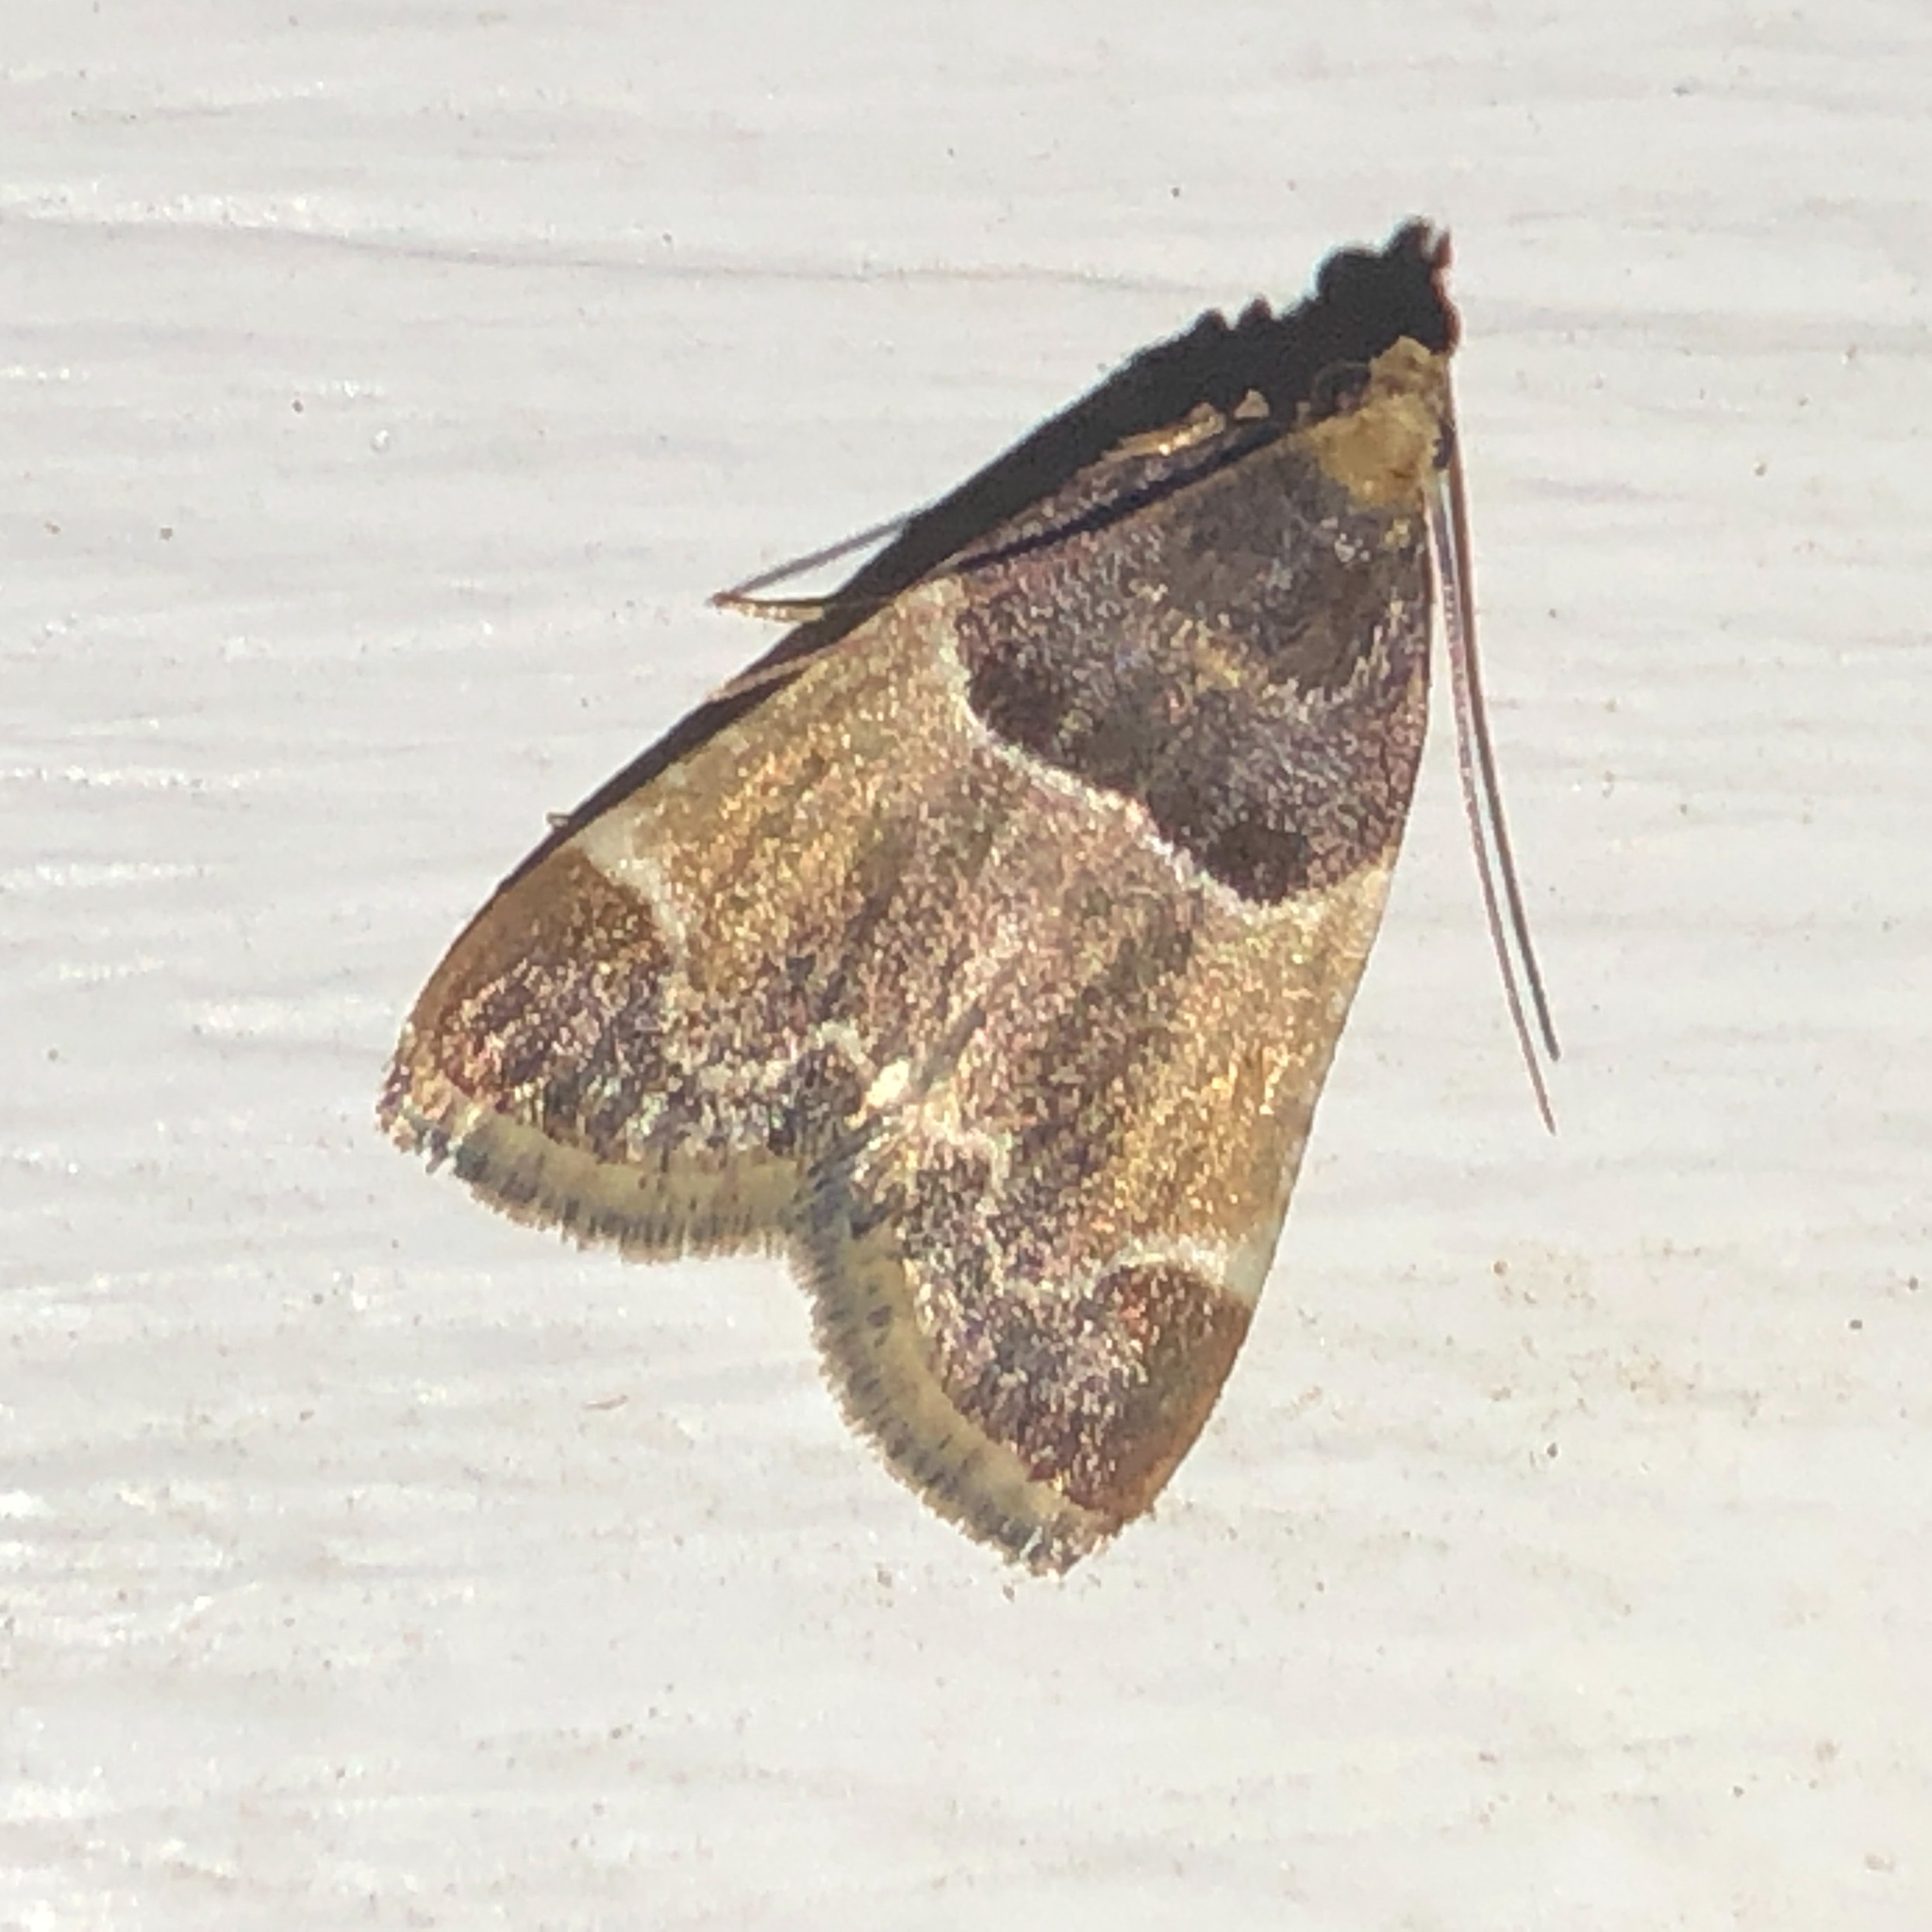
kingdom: Animalia
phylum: Arthropoda
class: Insecta
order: Lepidoptera
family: Pyralidae
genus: Pyralis
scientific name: Pyralis farinalis
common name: Meal moth
